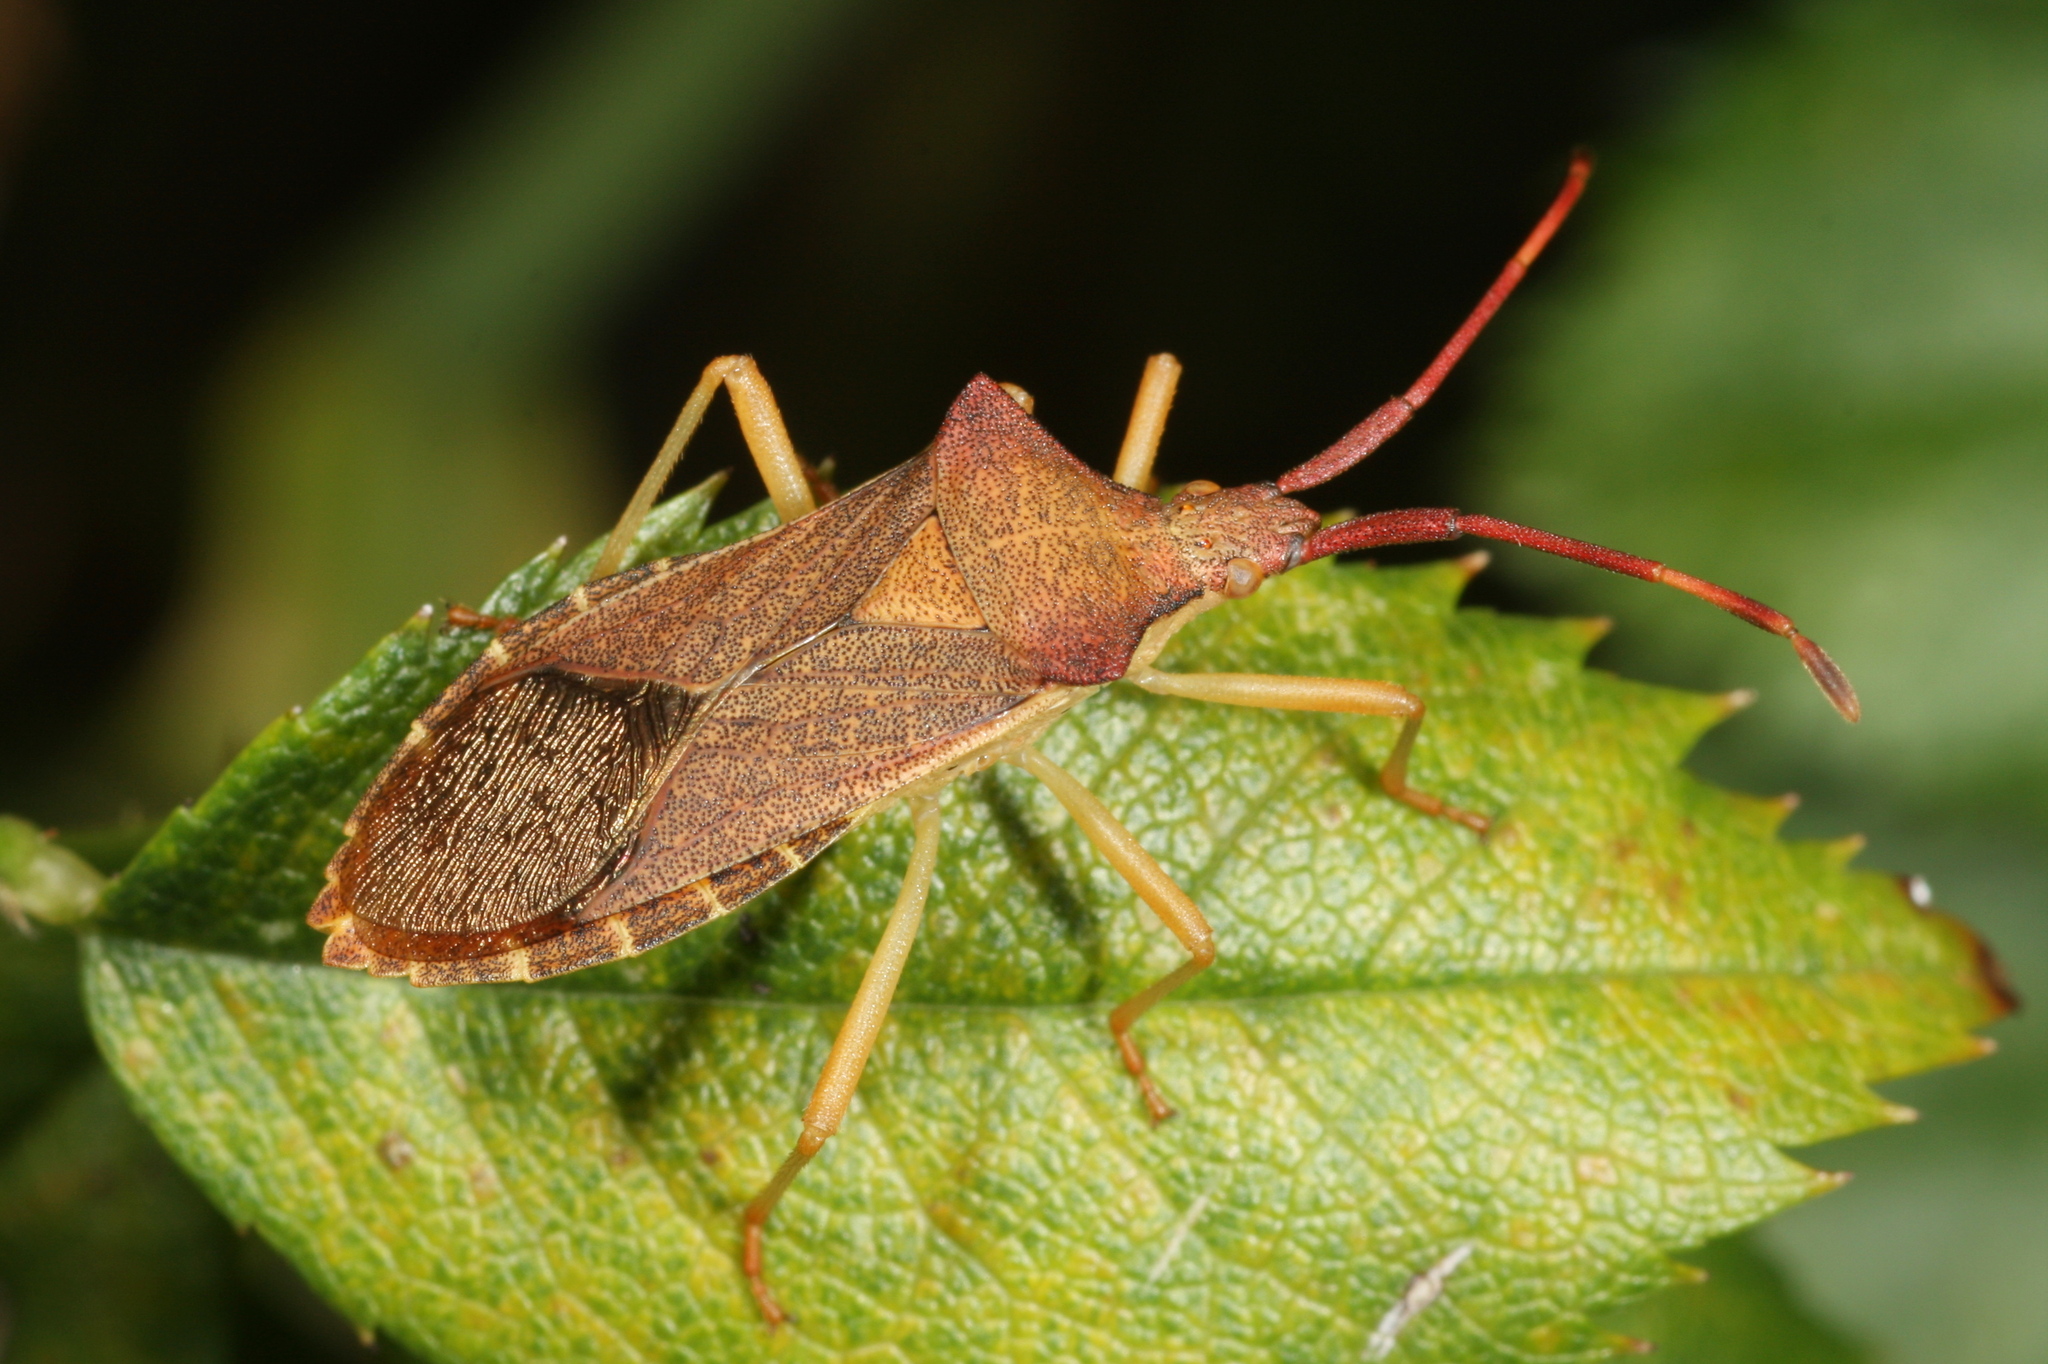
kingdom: Animalia
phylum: Arthropoda
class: Insecta
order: Hemiptera
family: Coreidae
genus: Gonocerus
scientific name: Gonocerus acuteangulatus
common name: Box bug
